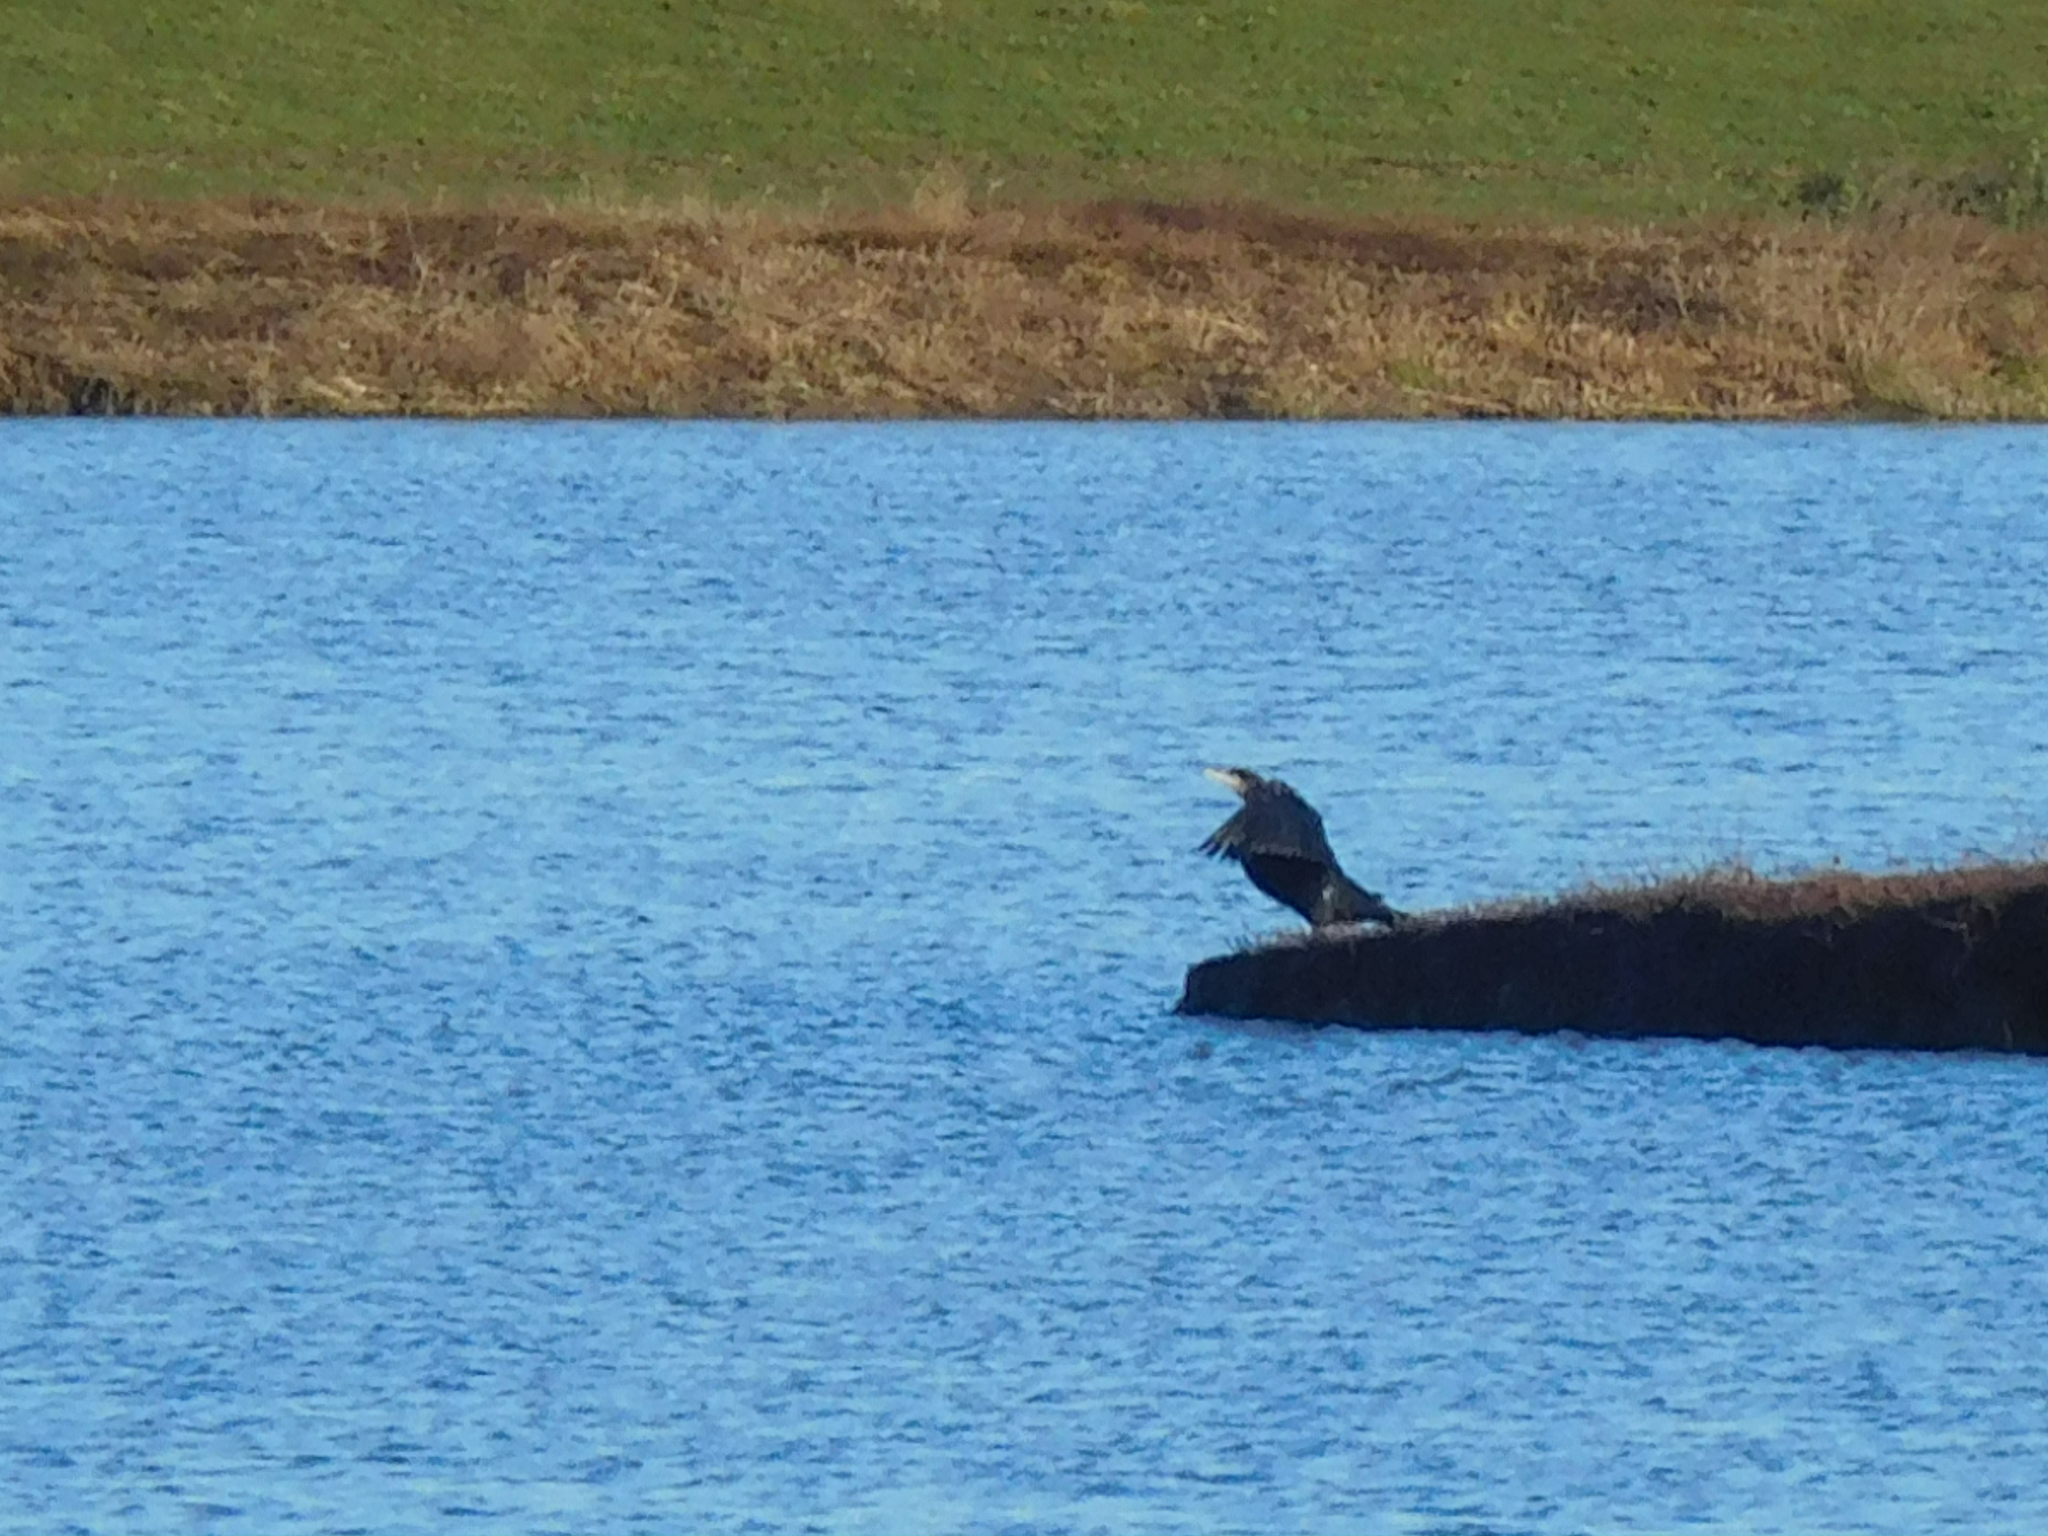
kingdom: Animalia
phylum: Chordata
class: Aves
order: Suliformes
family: Phalacrocoracidae
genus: Phalacrocorax
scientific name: Phalacrocorax carbo
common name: Great cormorant
